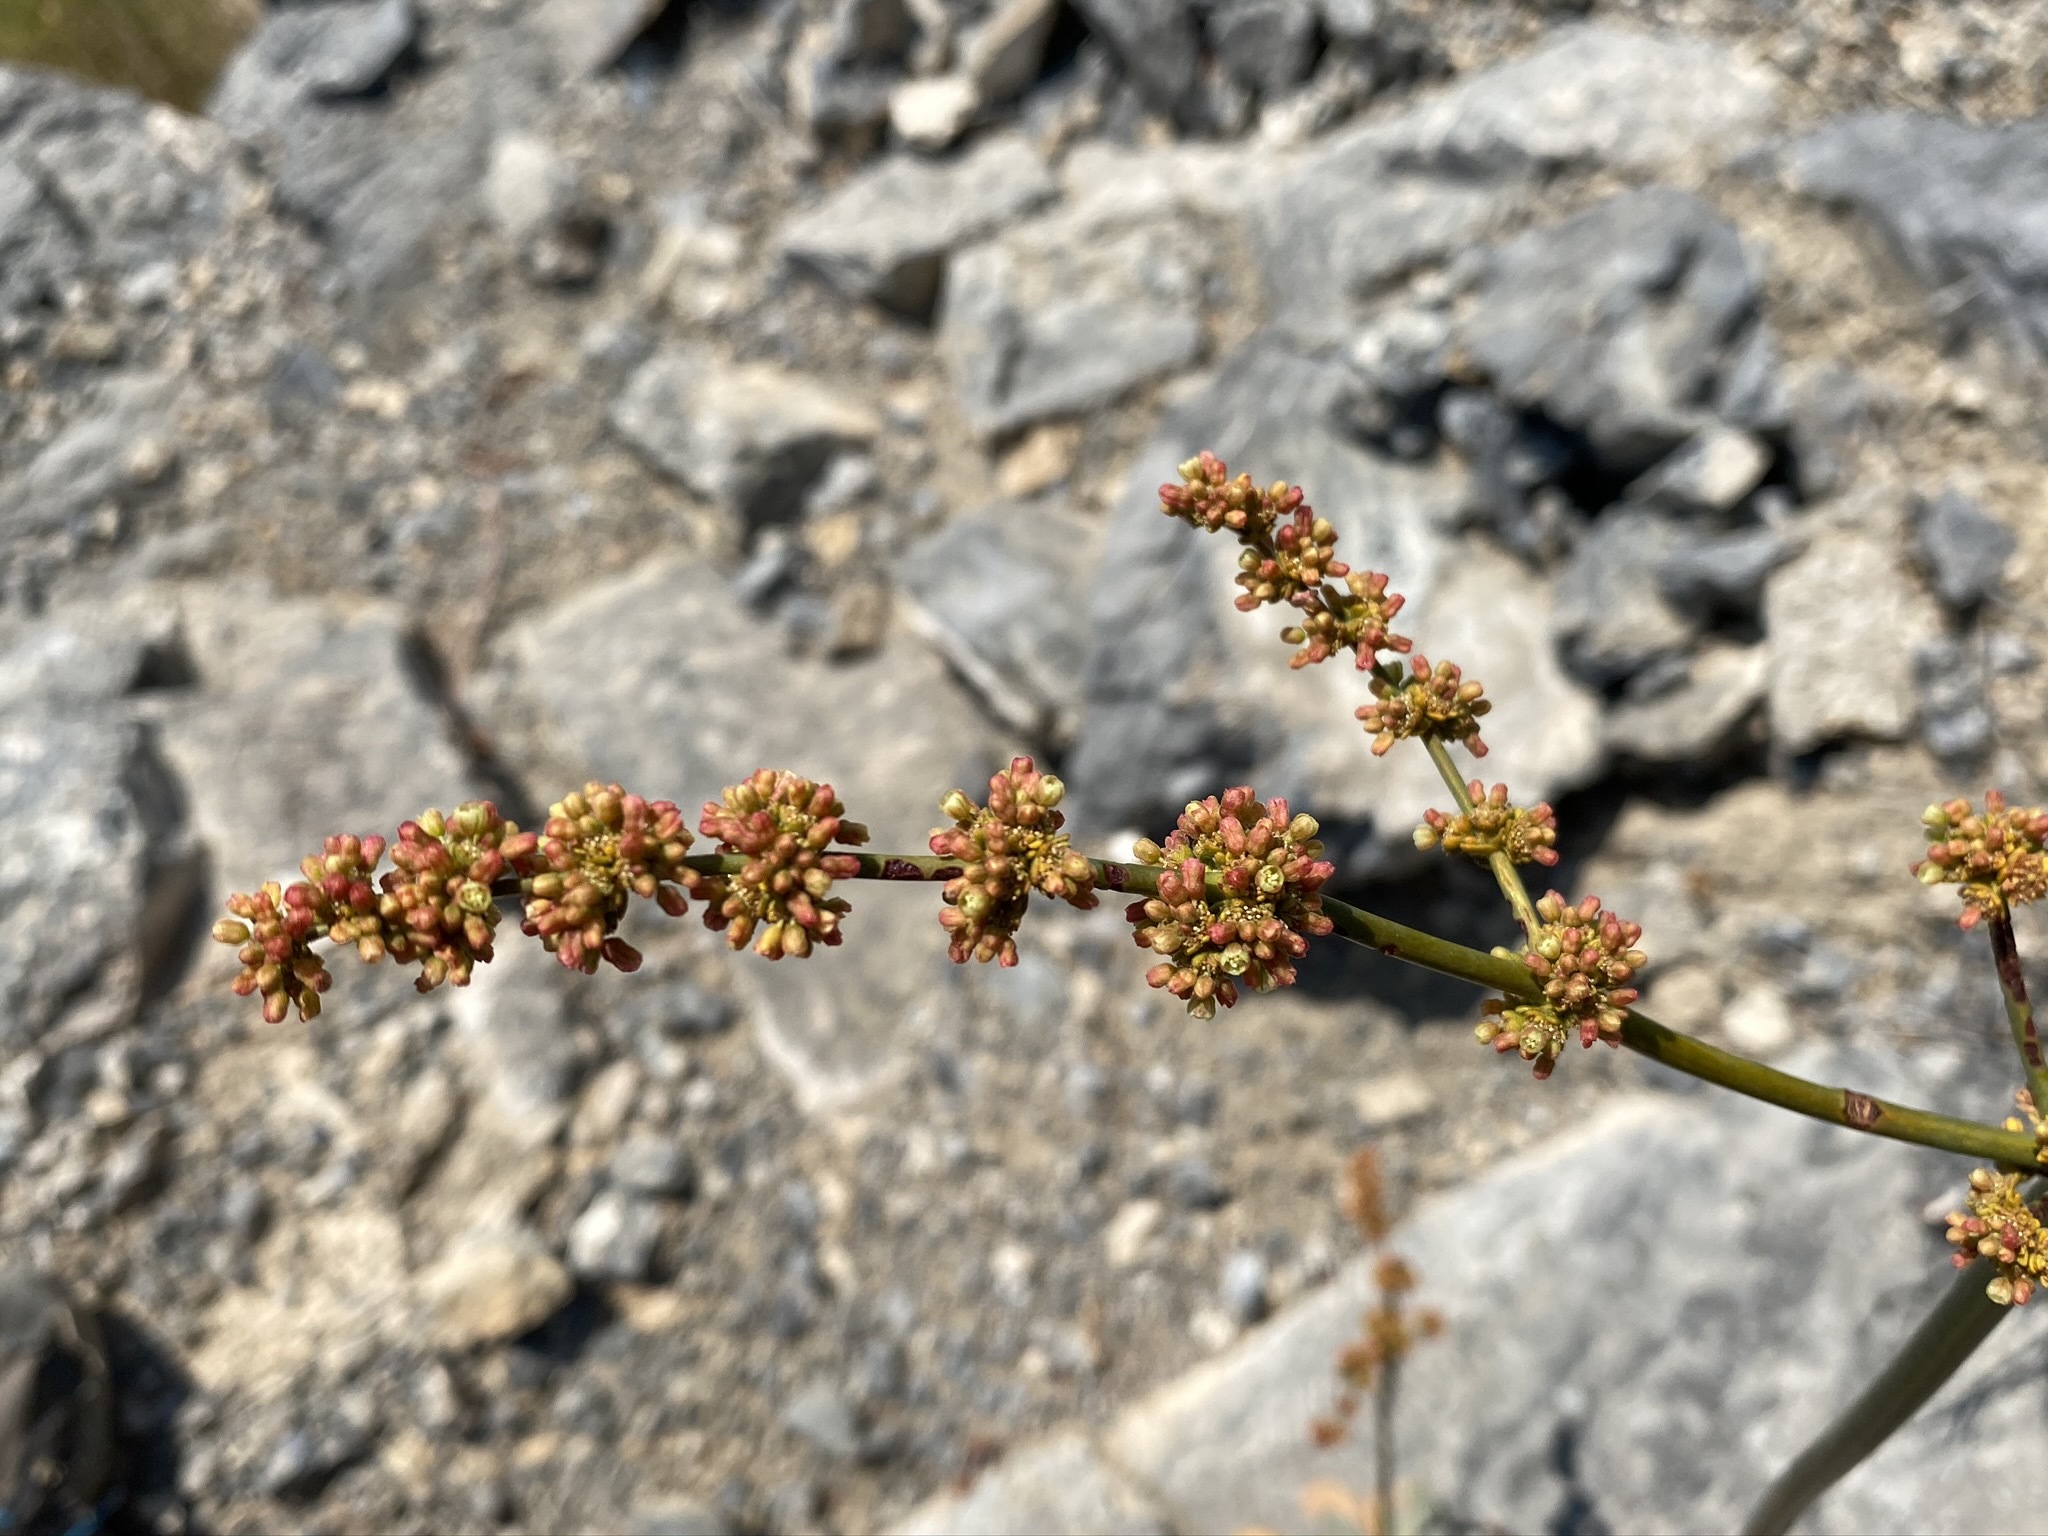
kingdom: Plantae
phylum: Tracheophyta
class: Magnoliopsida
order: Caryophyllales
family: Polygonaceae
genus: Eriogonum
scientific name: Eriogonum intrafractum
